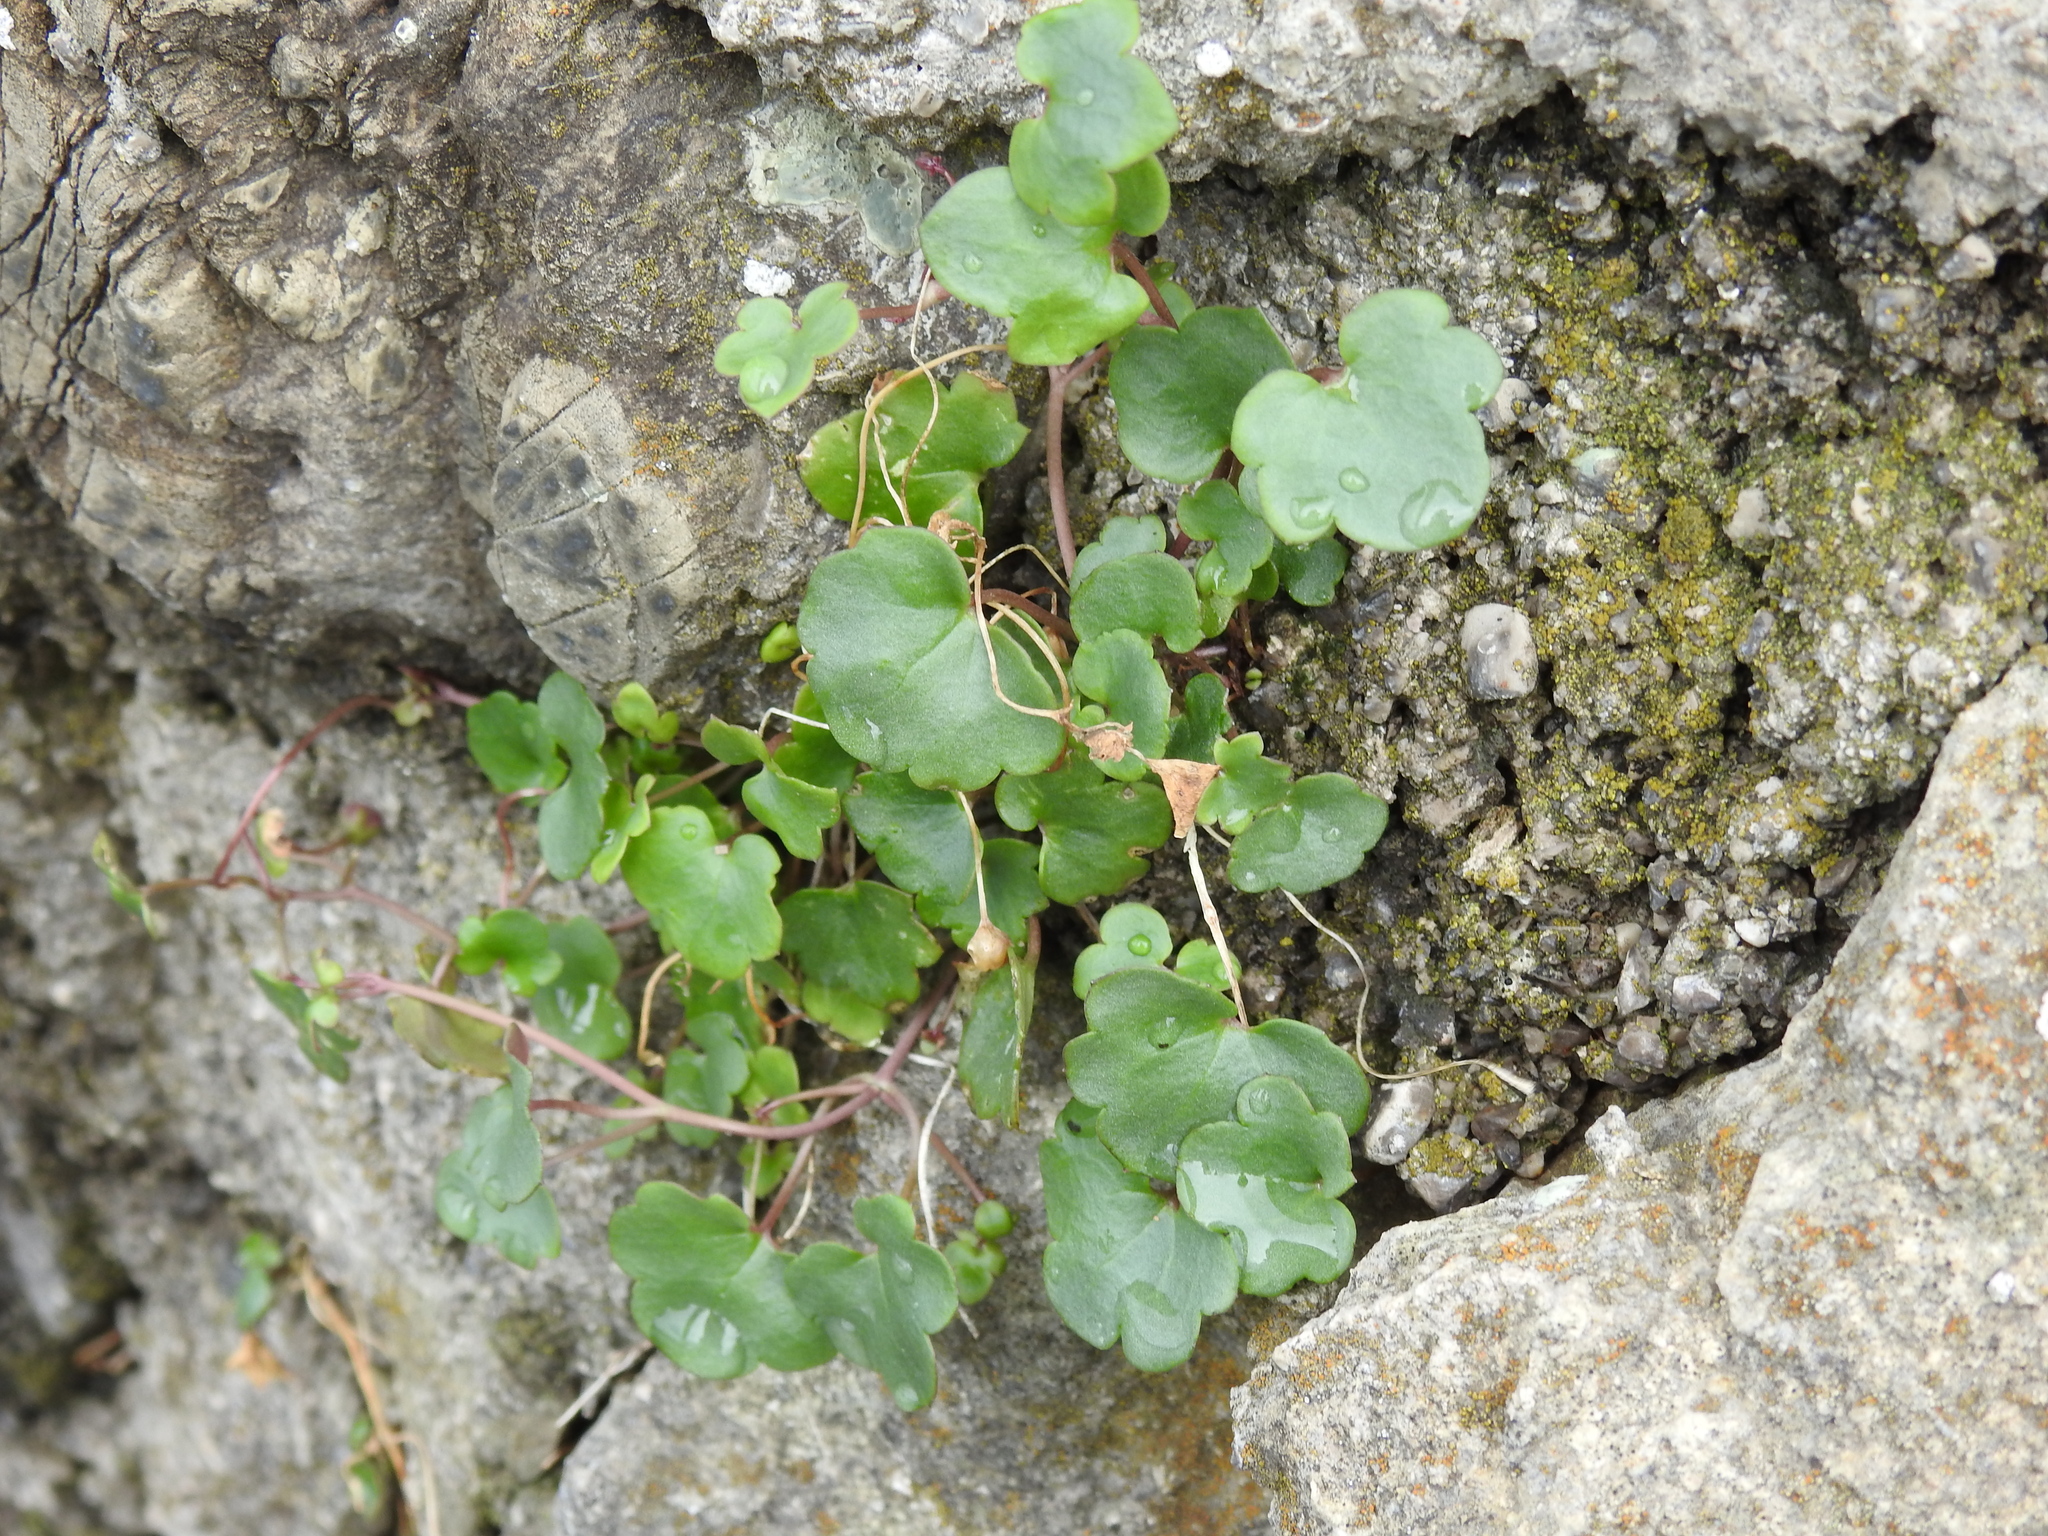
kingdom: Plantae
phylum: Tracheophyta
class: Magnoliopsida
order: Lamiales
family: Plantaginaceae
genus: Cymbalaria
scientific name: Cymbalaria muralis
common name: Ivy-leaved toadflax
